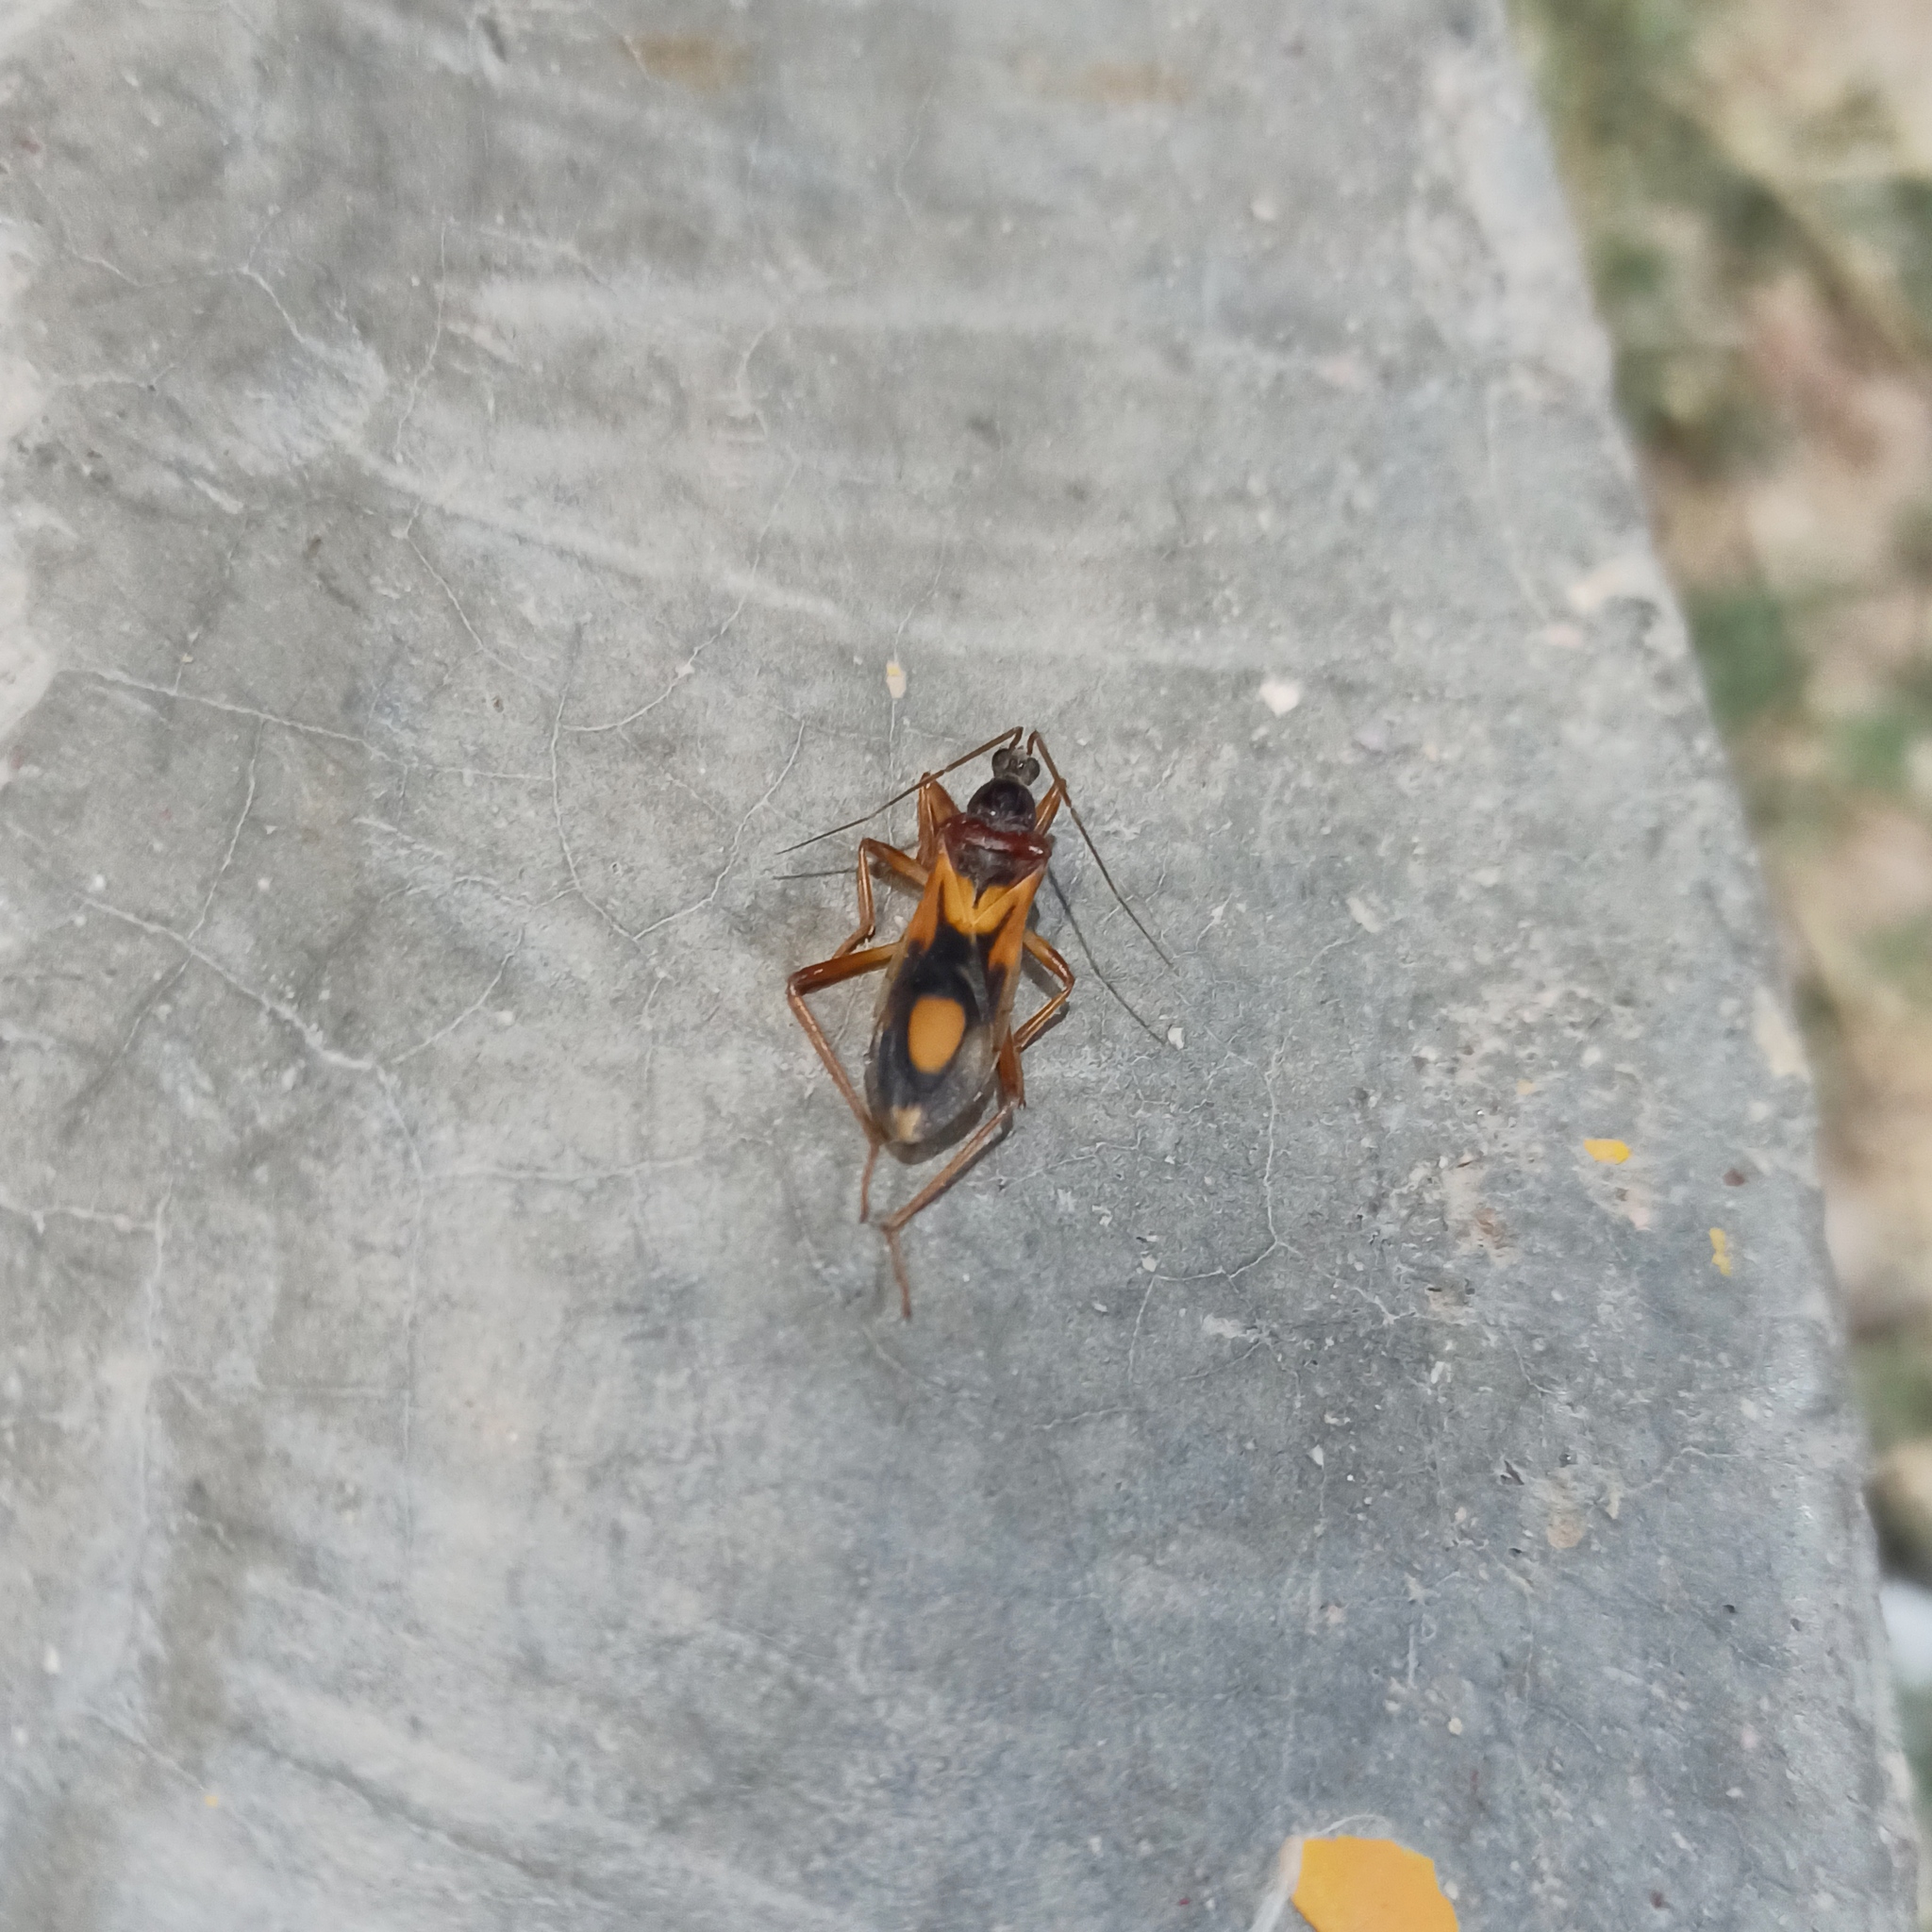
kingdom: Animalia
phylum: Arthropoda
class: Insecta
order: Hemiptera
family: Reduviidae
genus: Rasahus
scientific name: Rasahus thoracicus
